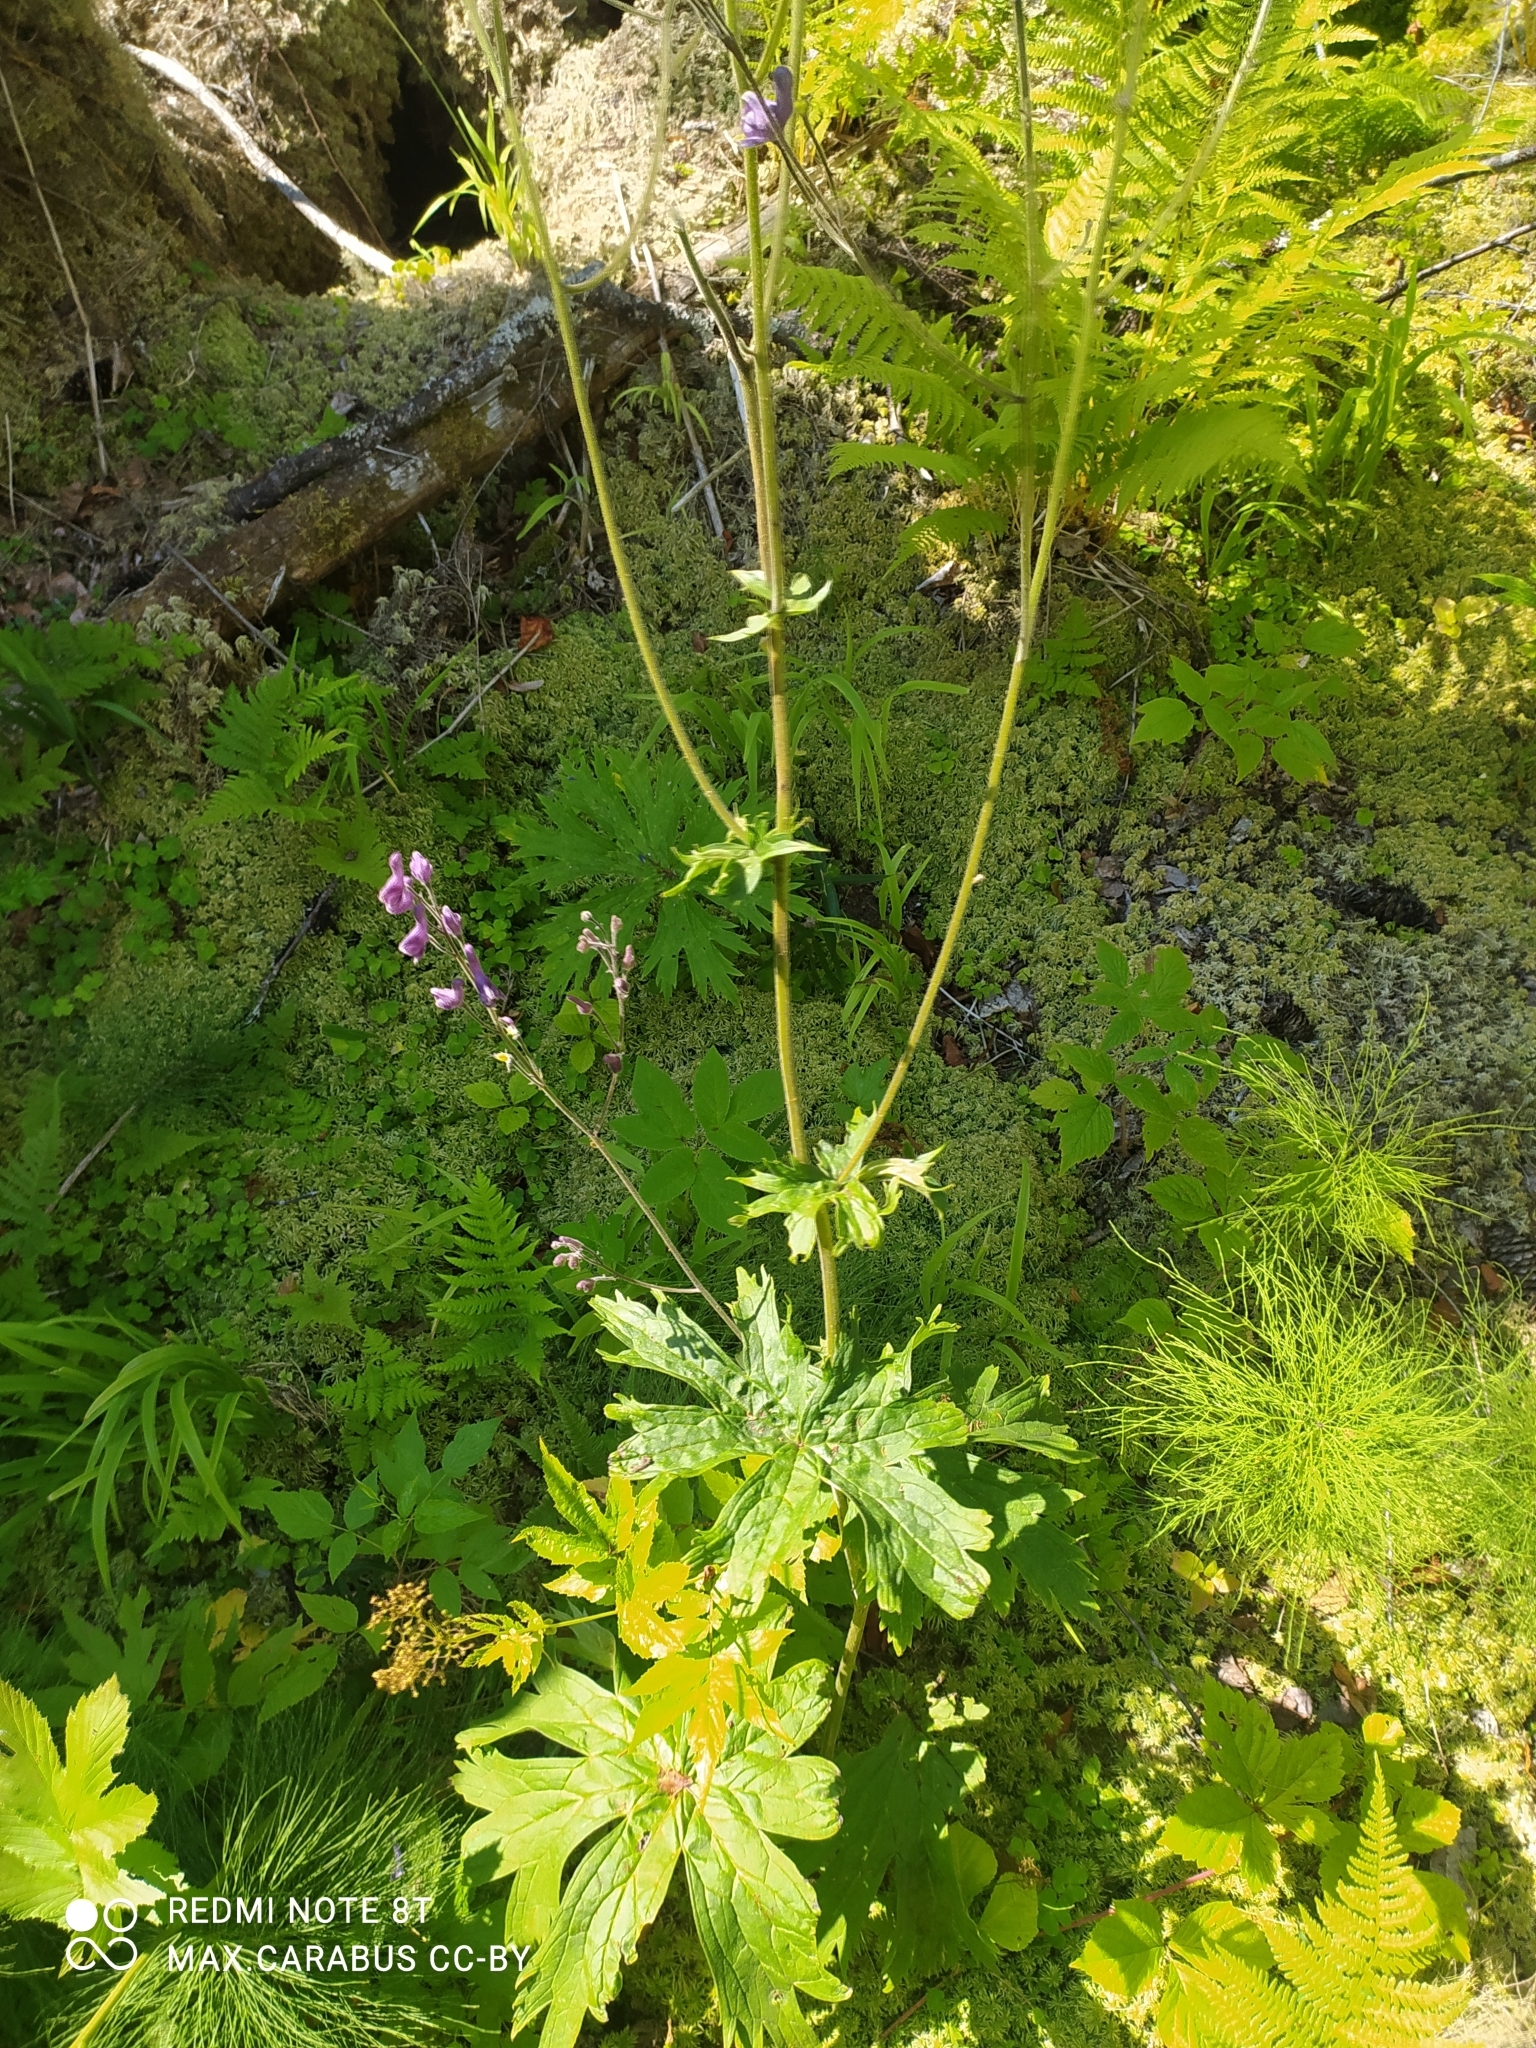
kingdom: Plantae
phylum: Tracheophyta
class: Magnoliopsida
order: Ranunculales
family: Ranunculaceae
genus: Aconitum
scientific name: Aconitum septentrionale
